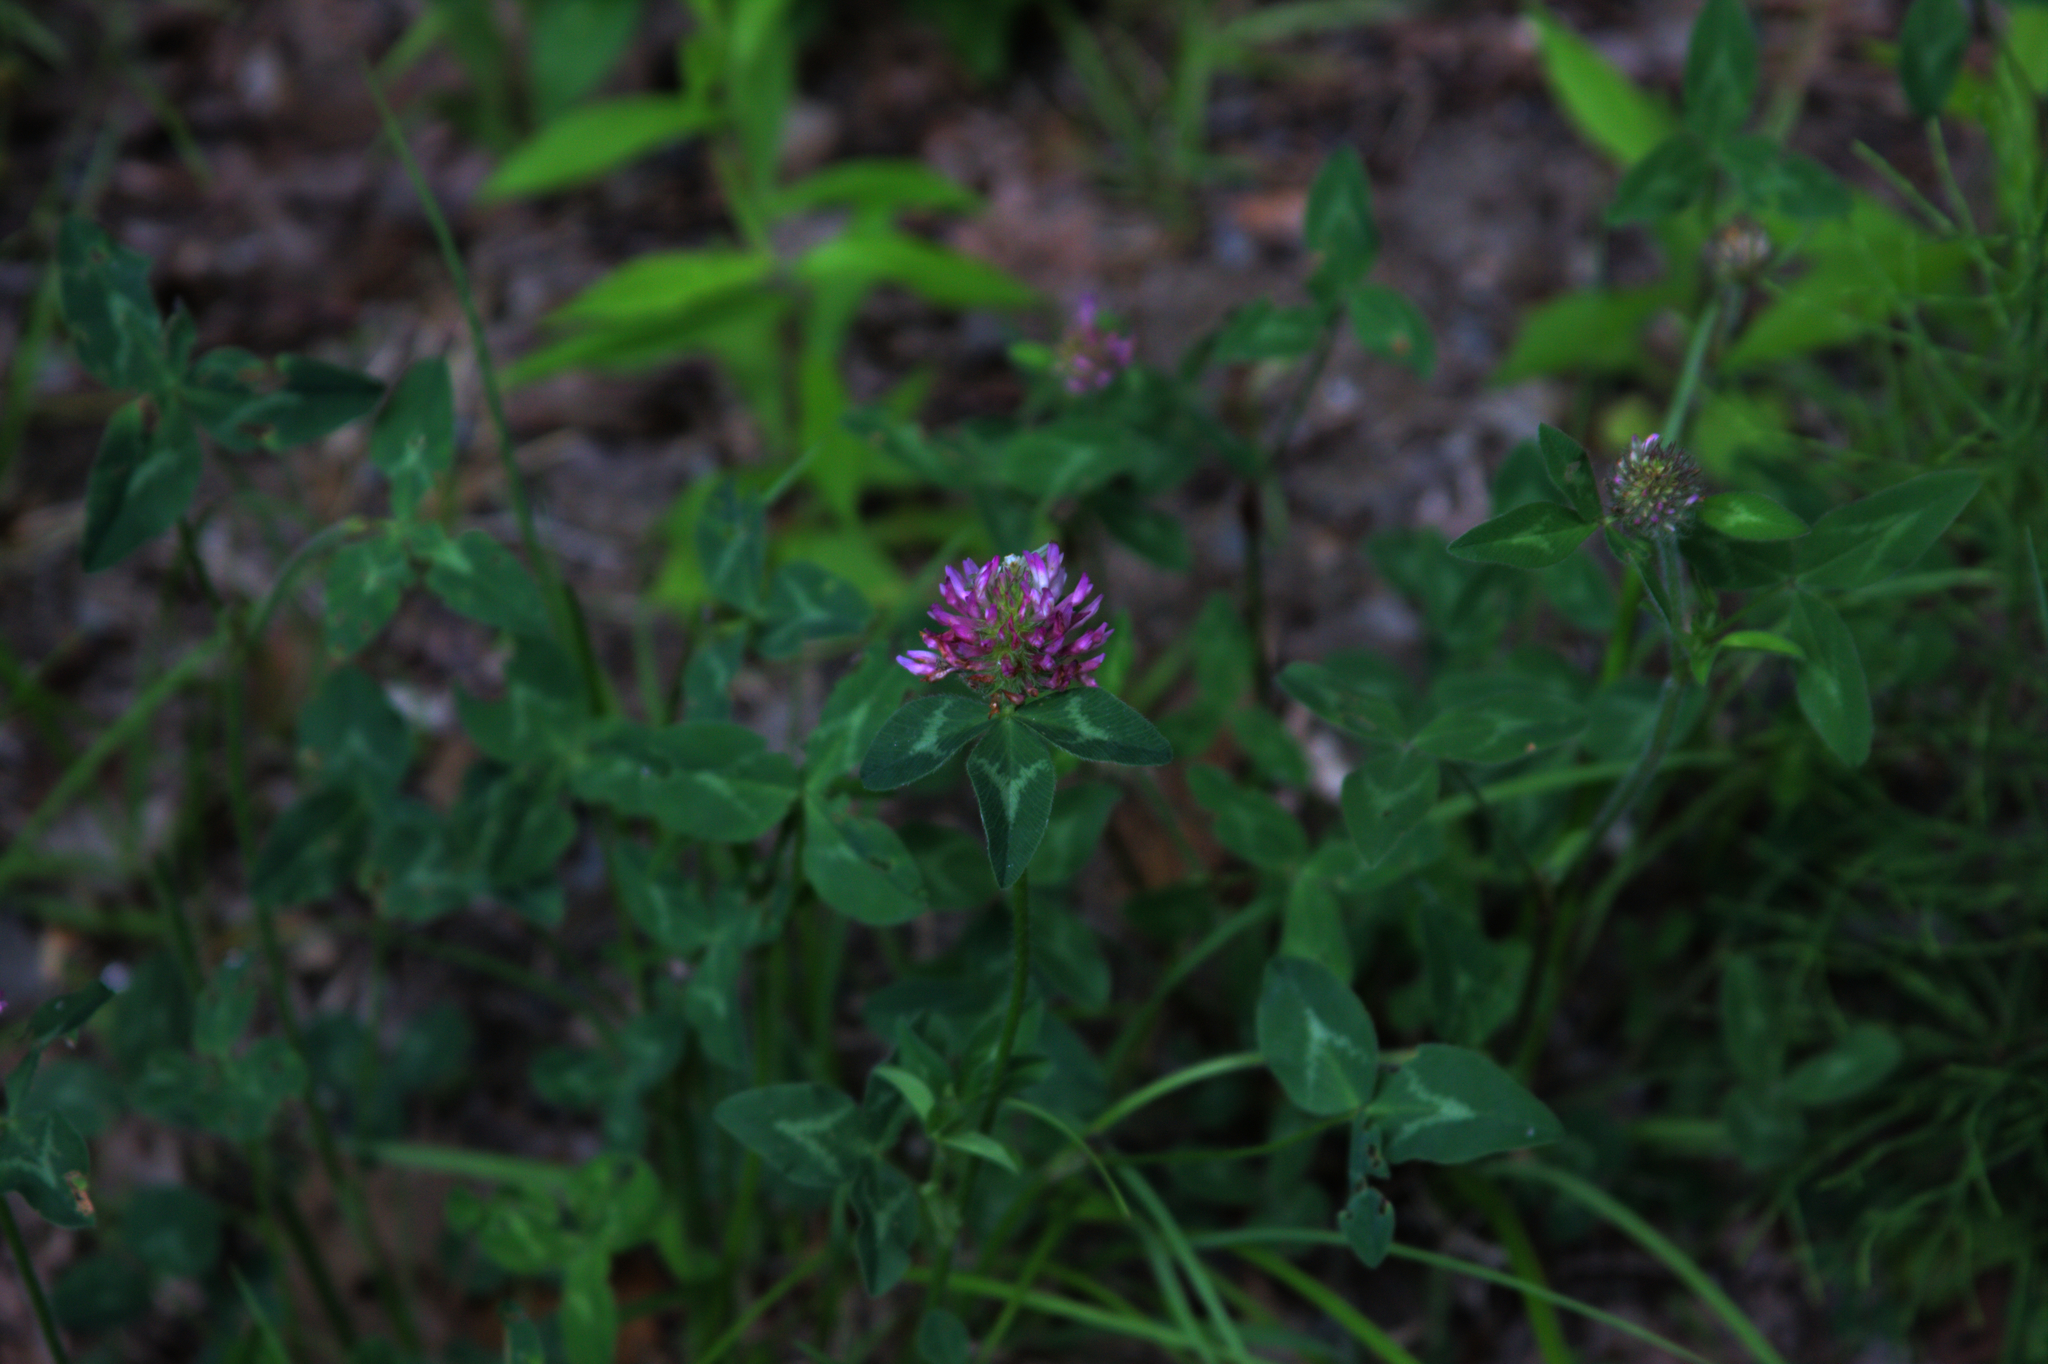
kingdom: Plantae
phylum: Tracheophyta
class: Magnoliopsida
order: Fabales
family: Fabaceae
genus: Trifolium
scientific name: Trifolium pratense
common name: Red clover
